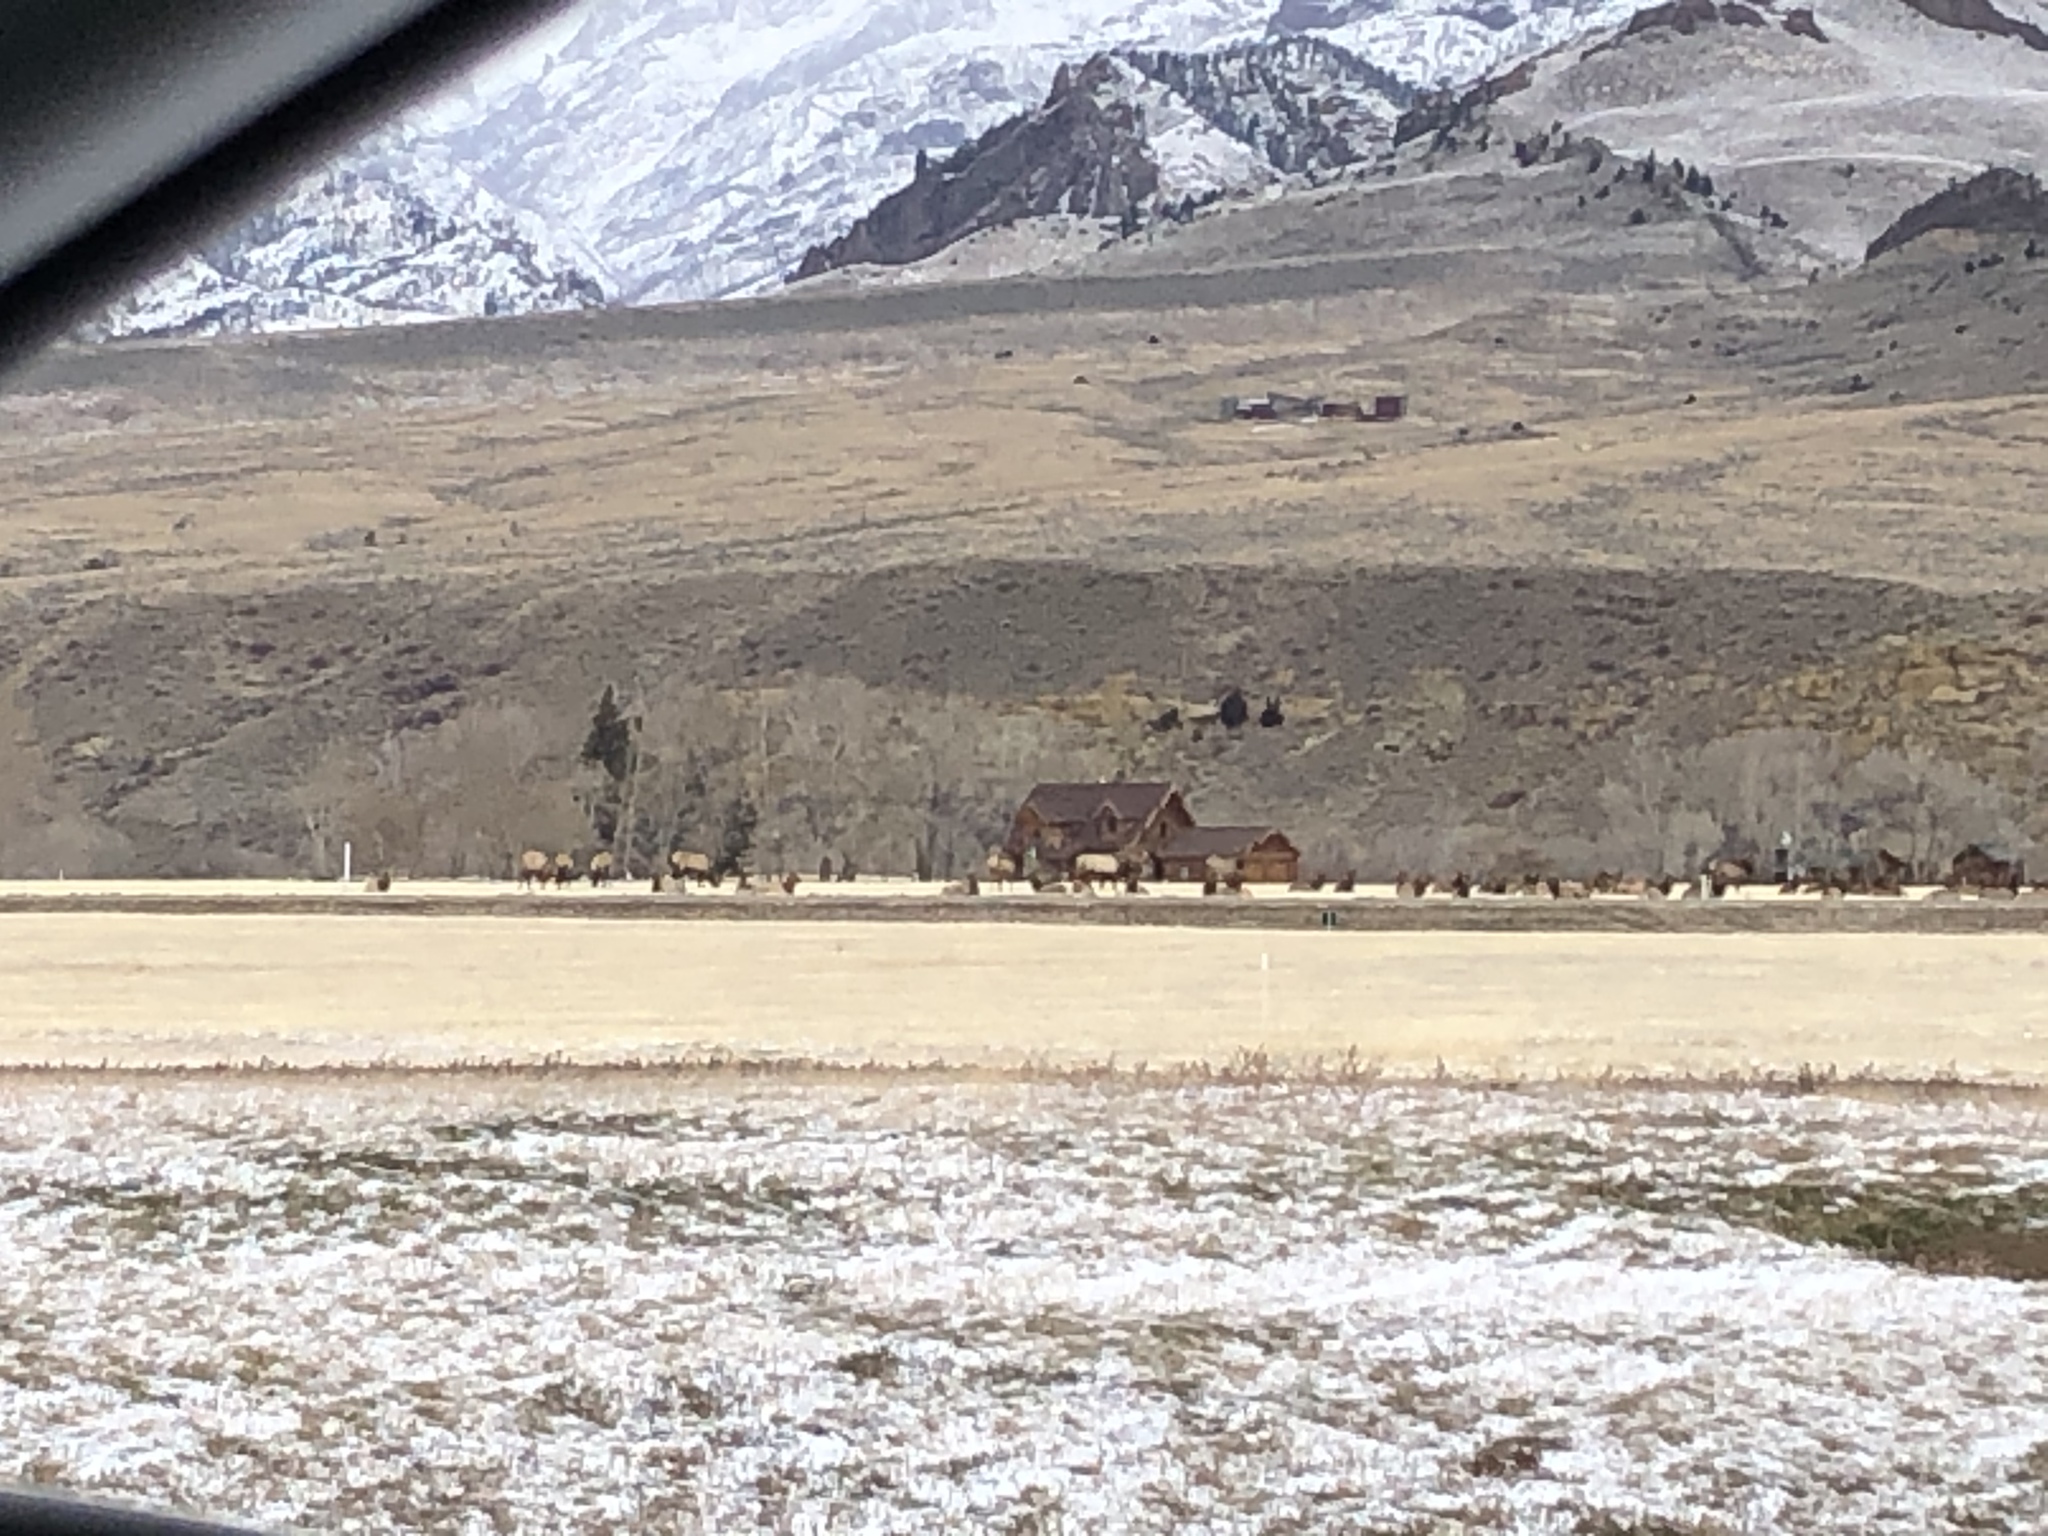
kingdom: Animalia
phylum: Chordata
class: Mammalia
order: Artiodactyla
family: Cervidae
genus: Cervus
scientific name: Cervus elaphus
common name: Red deer
